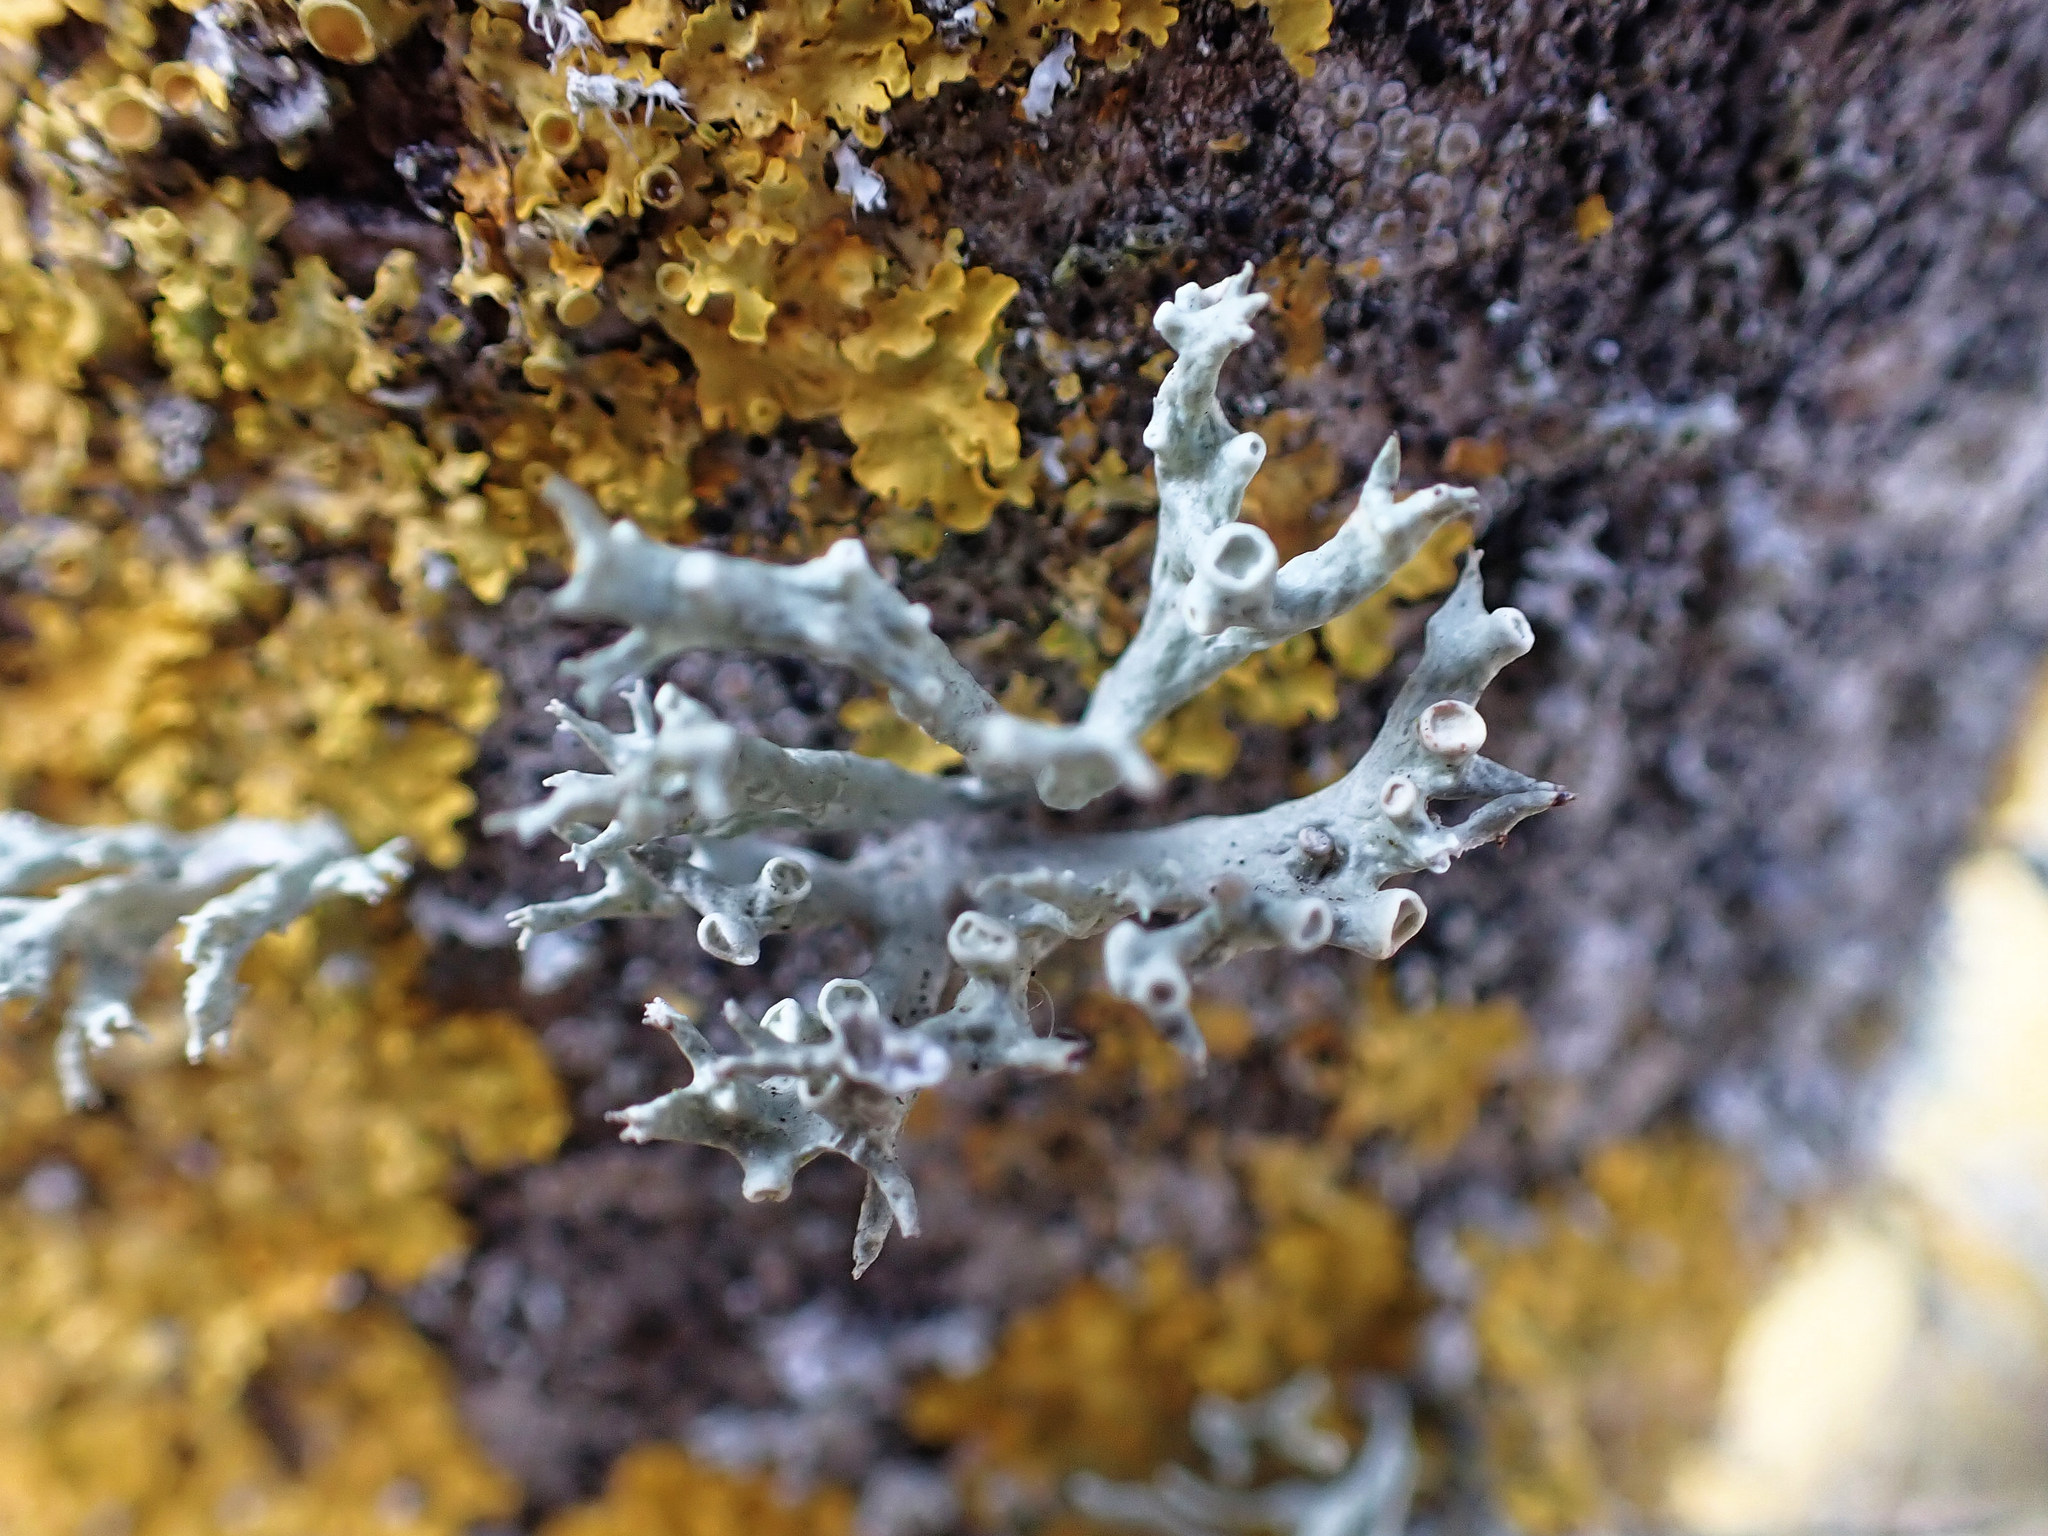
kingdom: Fungi
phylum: Ascomycota
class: Lecanoromycetes
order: Lecanorales
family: Ramalinaceae
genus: Ramalina
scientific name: Ramalina fastigiata
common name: Dotted ribbon lichen
